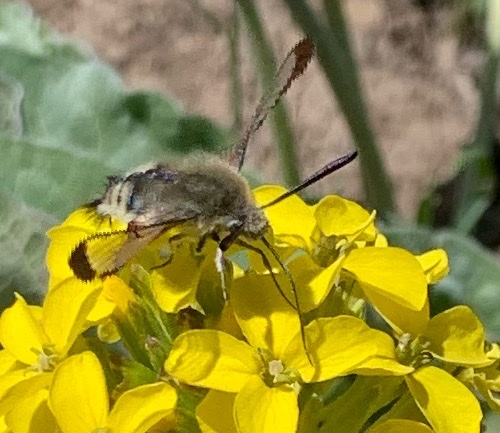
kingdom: Animalia
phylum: Arthropoda
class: Insecta
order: Lepidoptera
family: Sphingidae
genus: Hemaris
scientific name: Hemaris thetis
